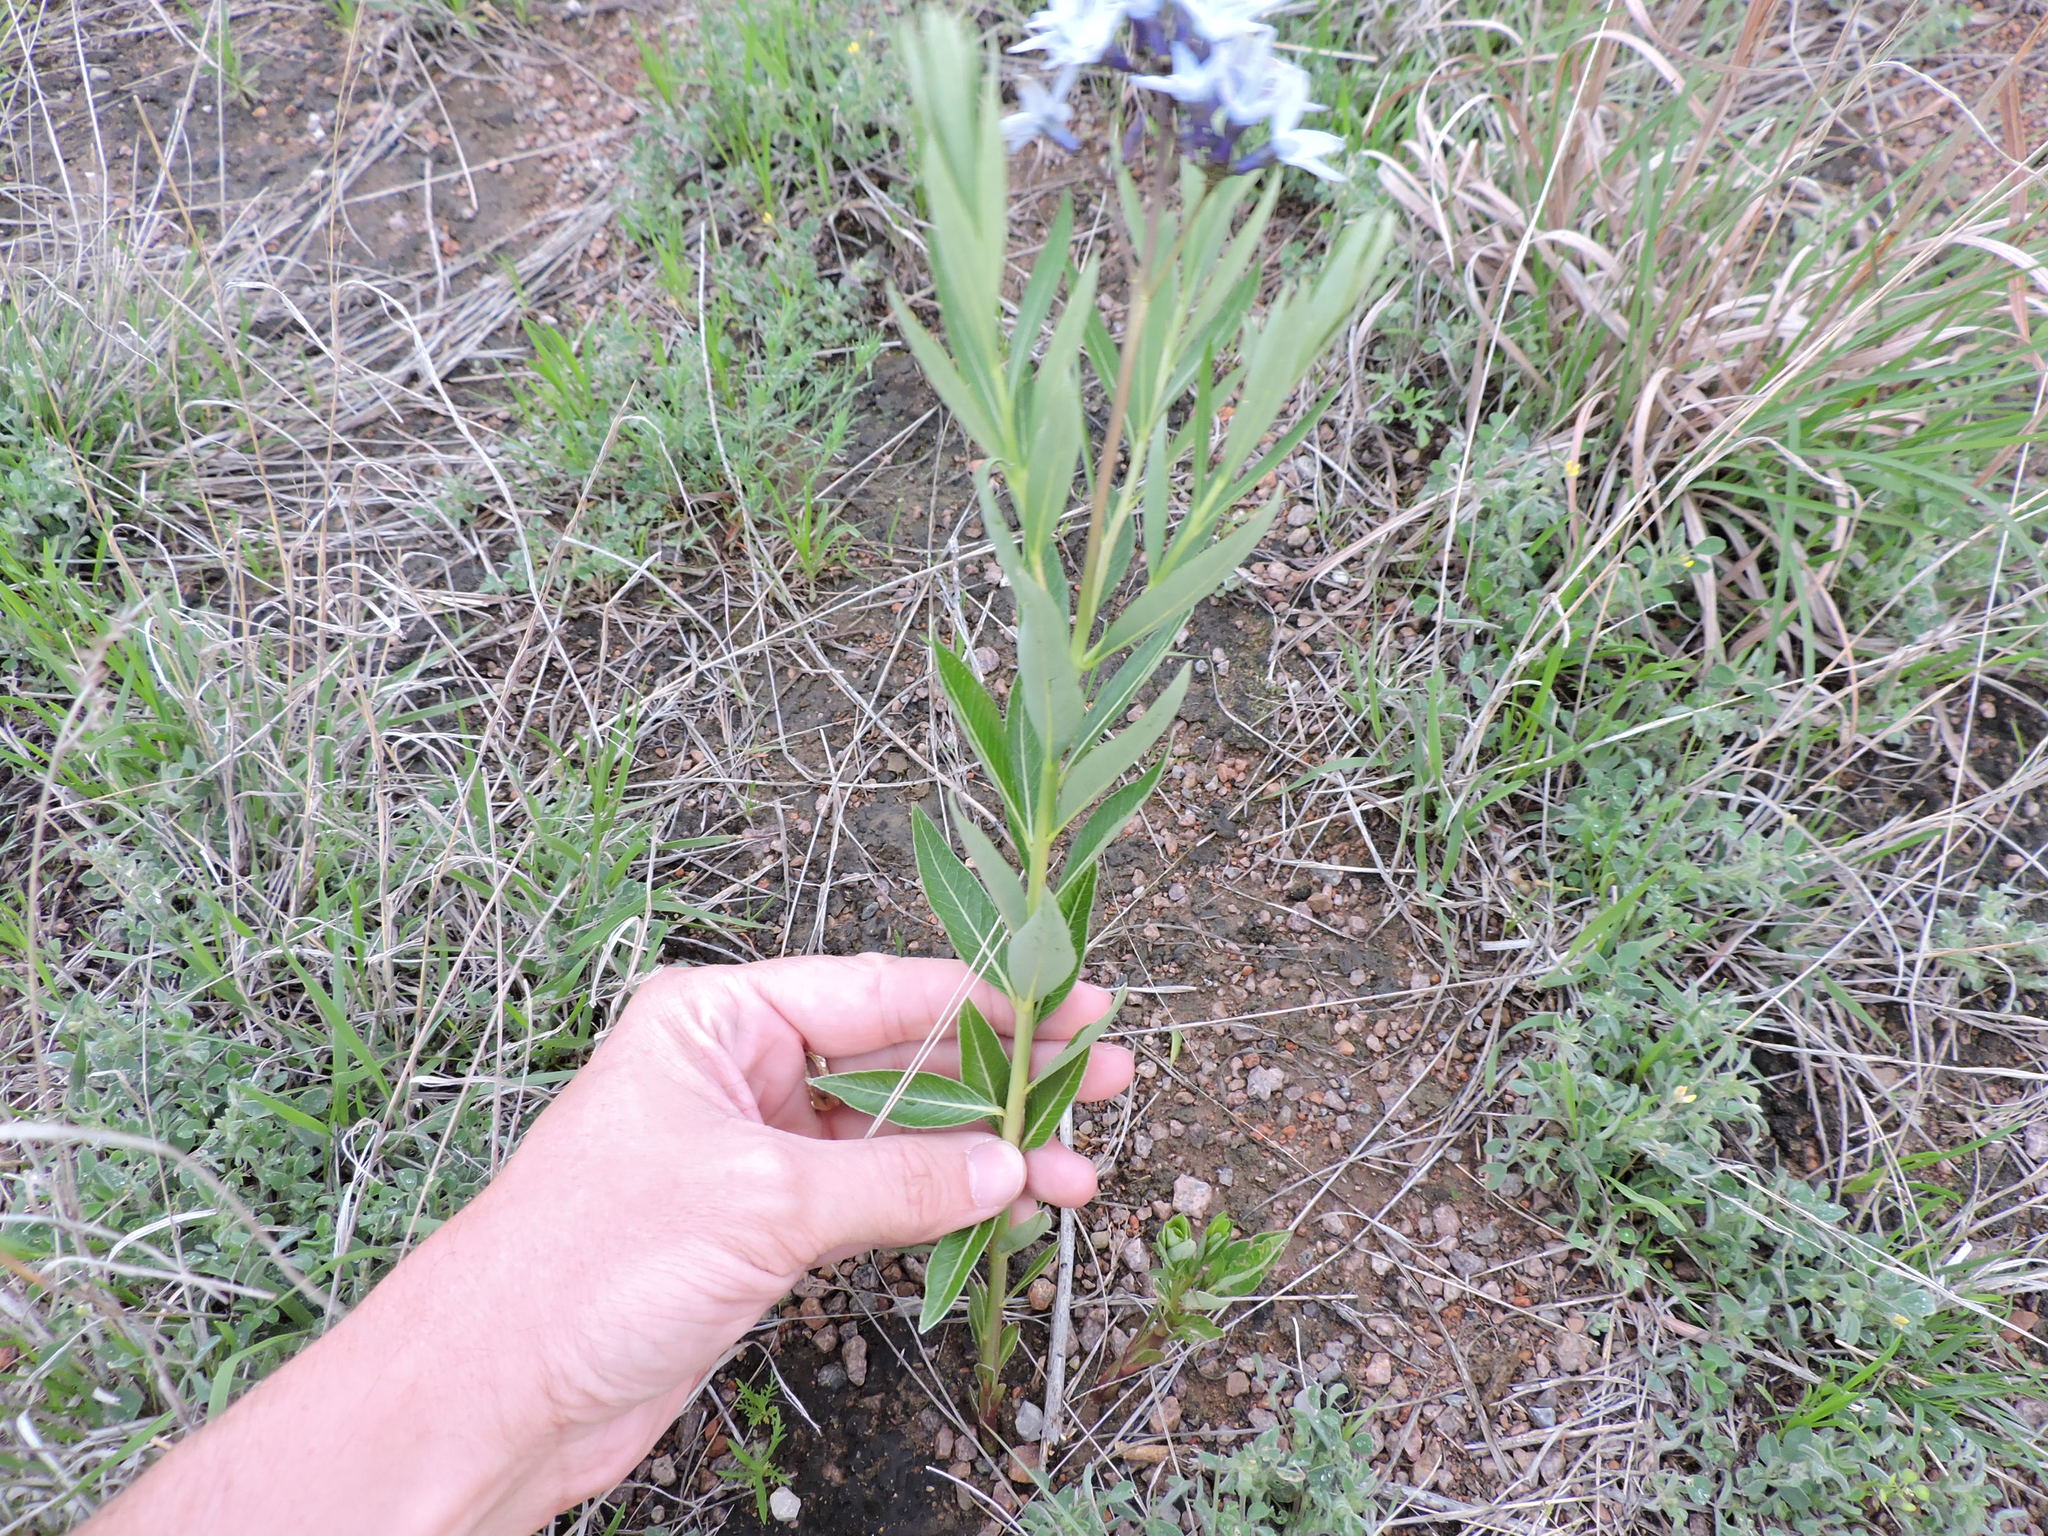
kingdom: Plantae
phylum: Tracheophyta
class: Magnoliopsida
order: Gentianales
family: Apocynaceae
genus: Amsonia
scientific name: Amsonia ciliata
